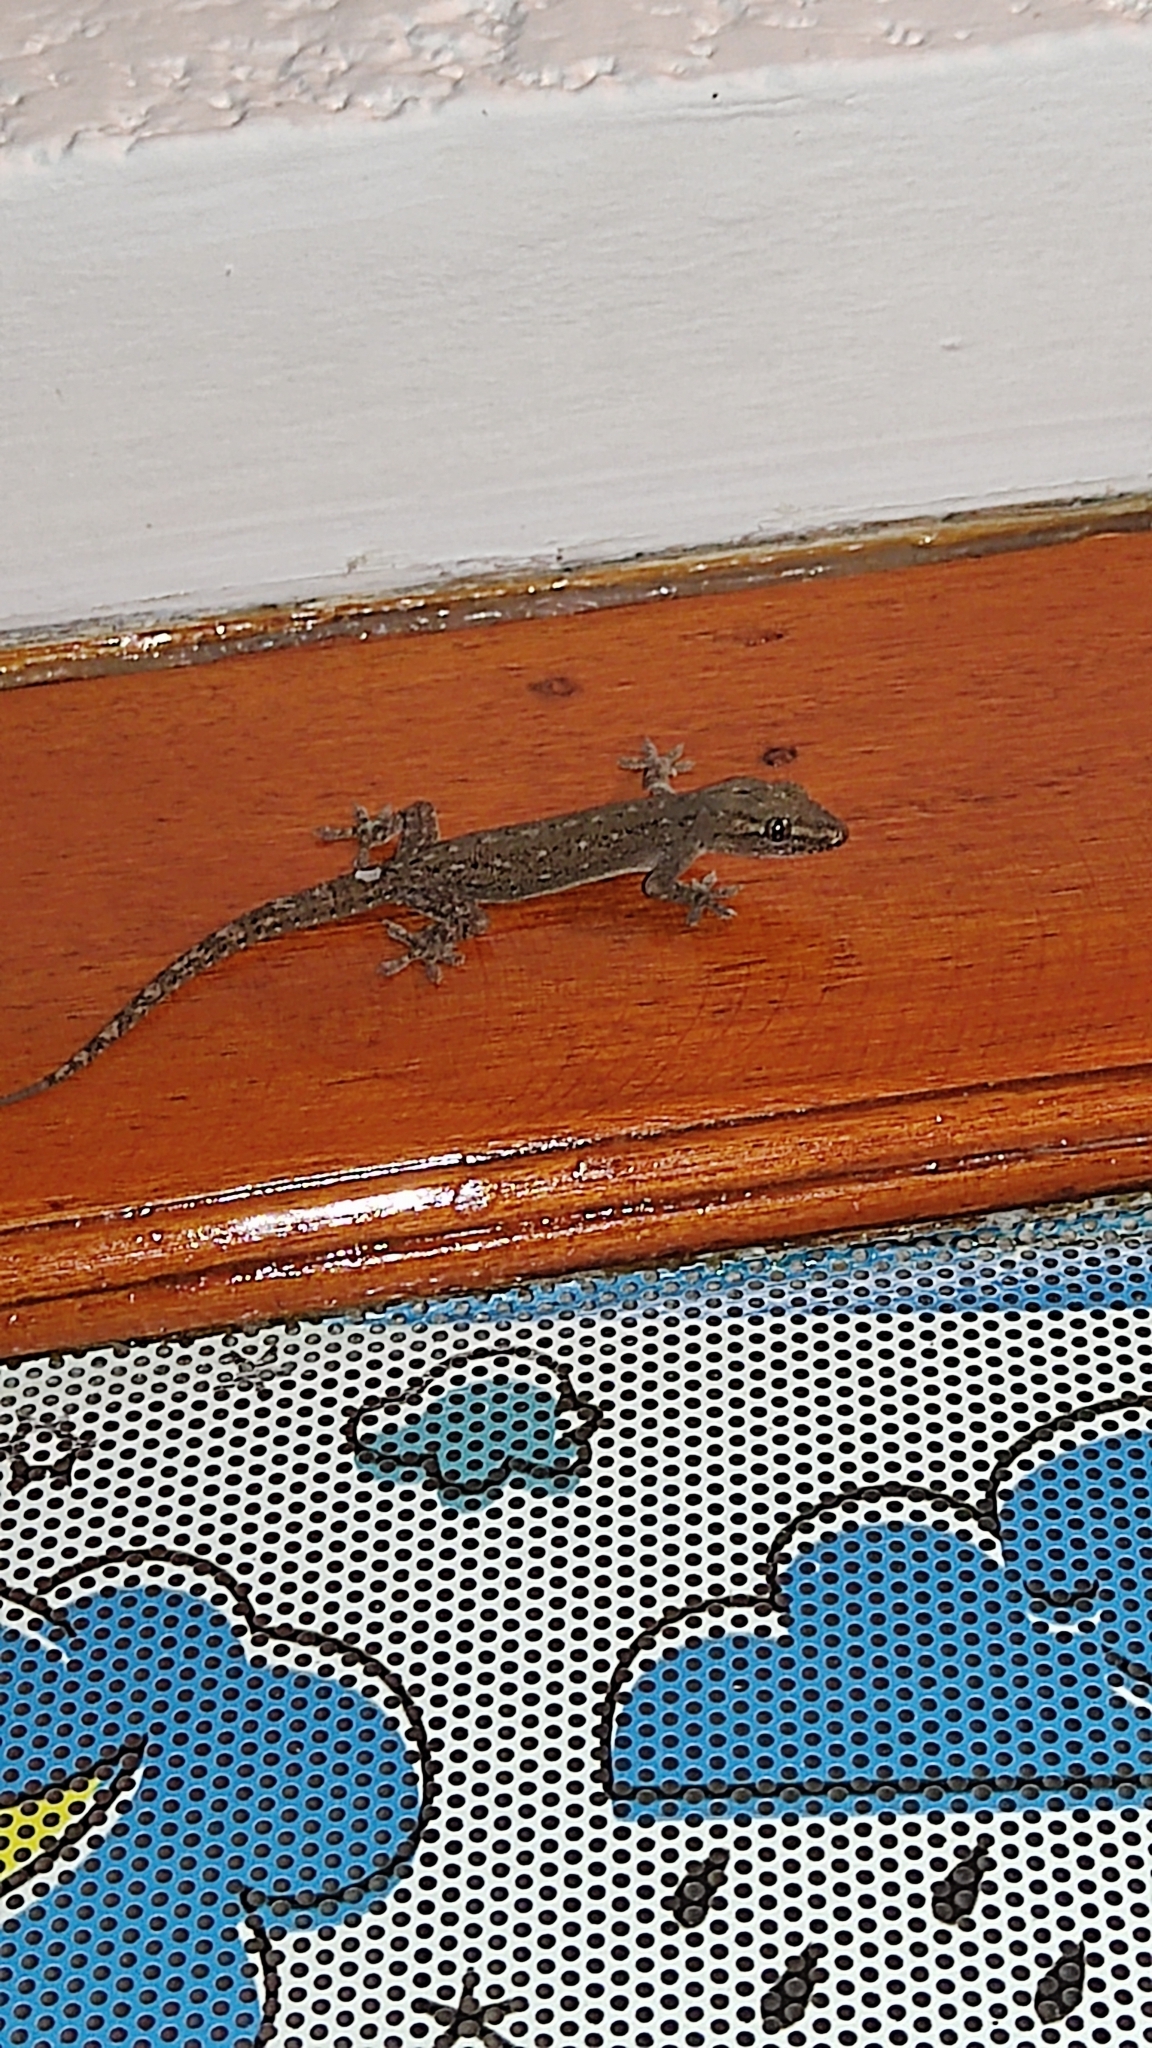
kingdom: Animalia
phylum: Chordata
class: Squamata
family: Gekkonidae
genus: Hemidactylus
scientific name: Hemidactylus frenatus
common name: Common house gecko
